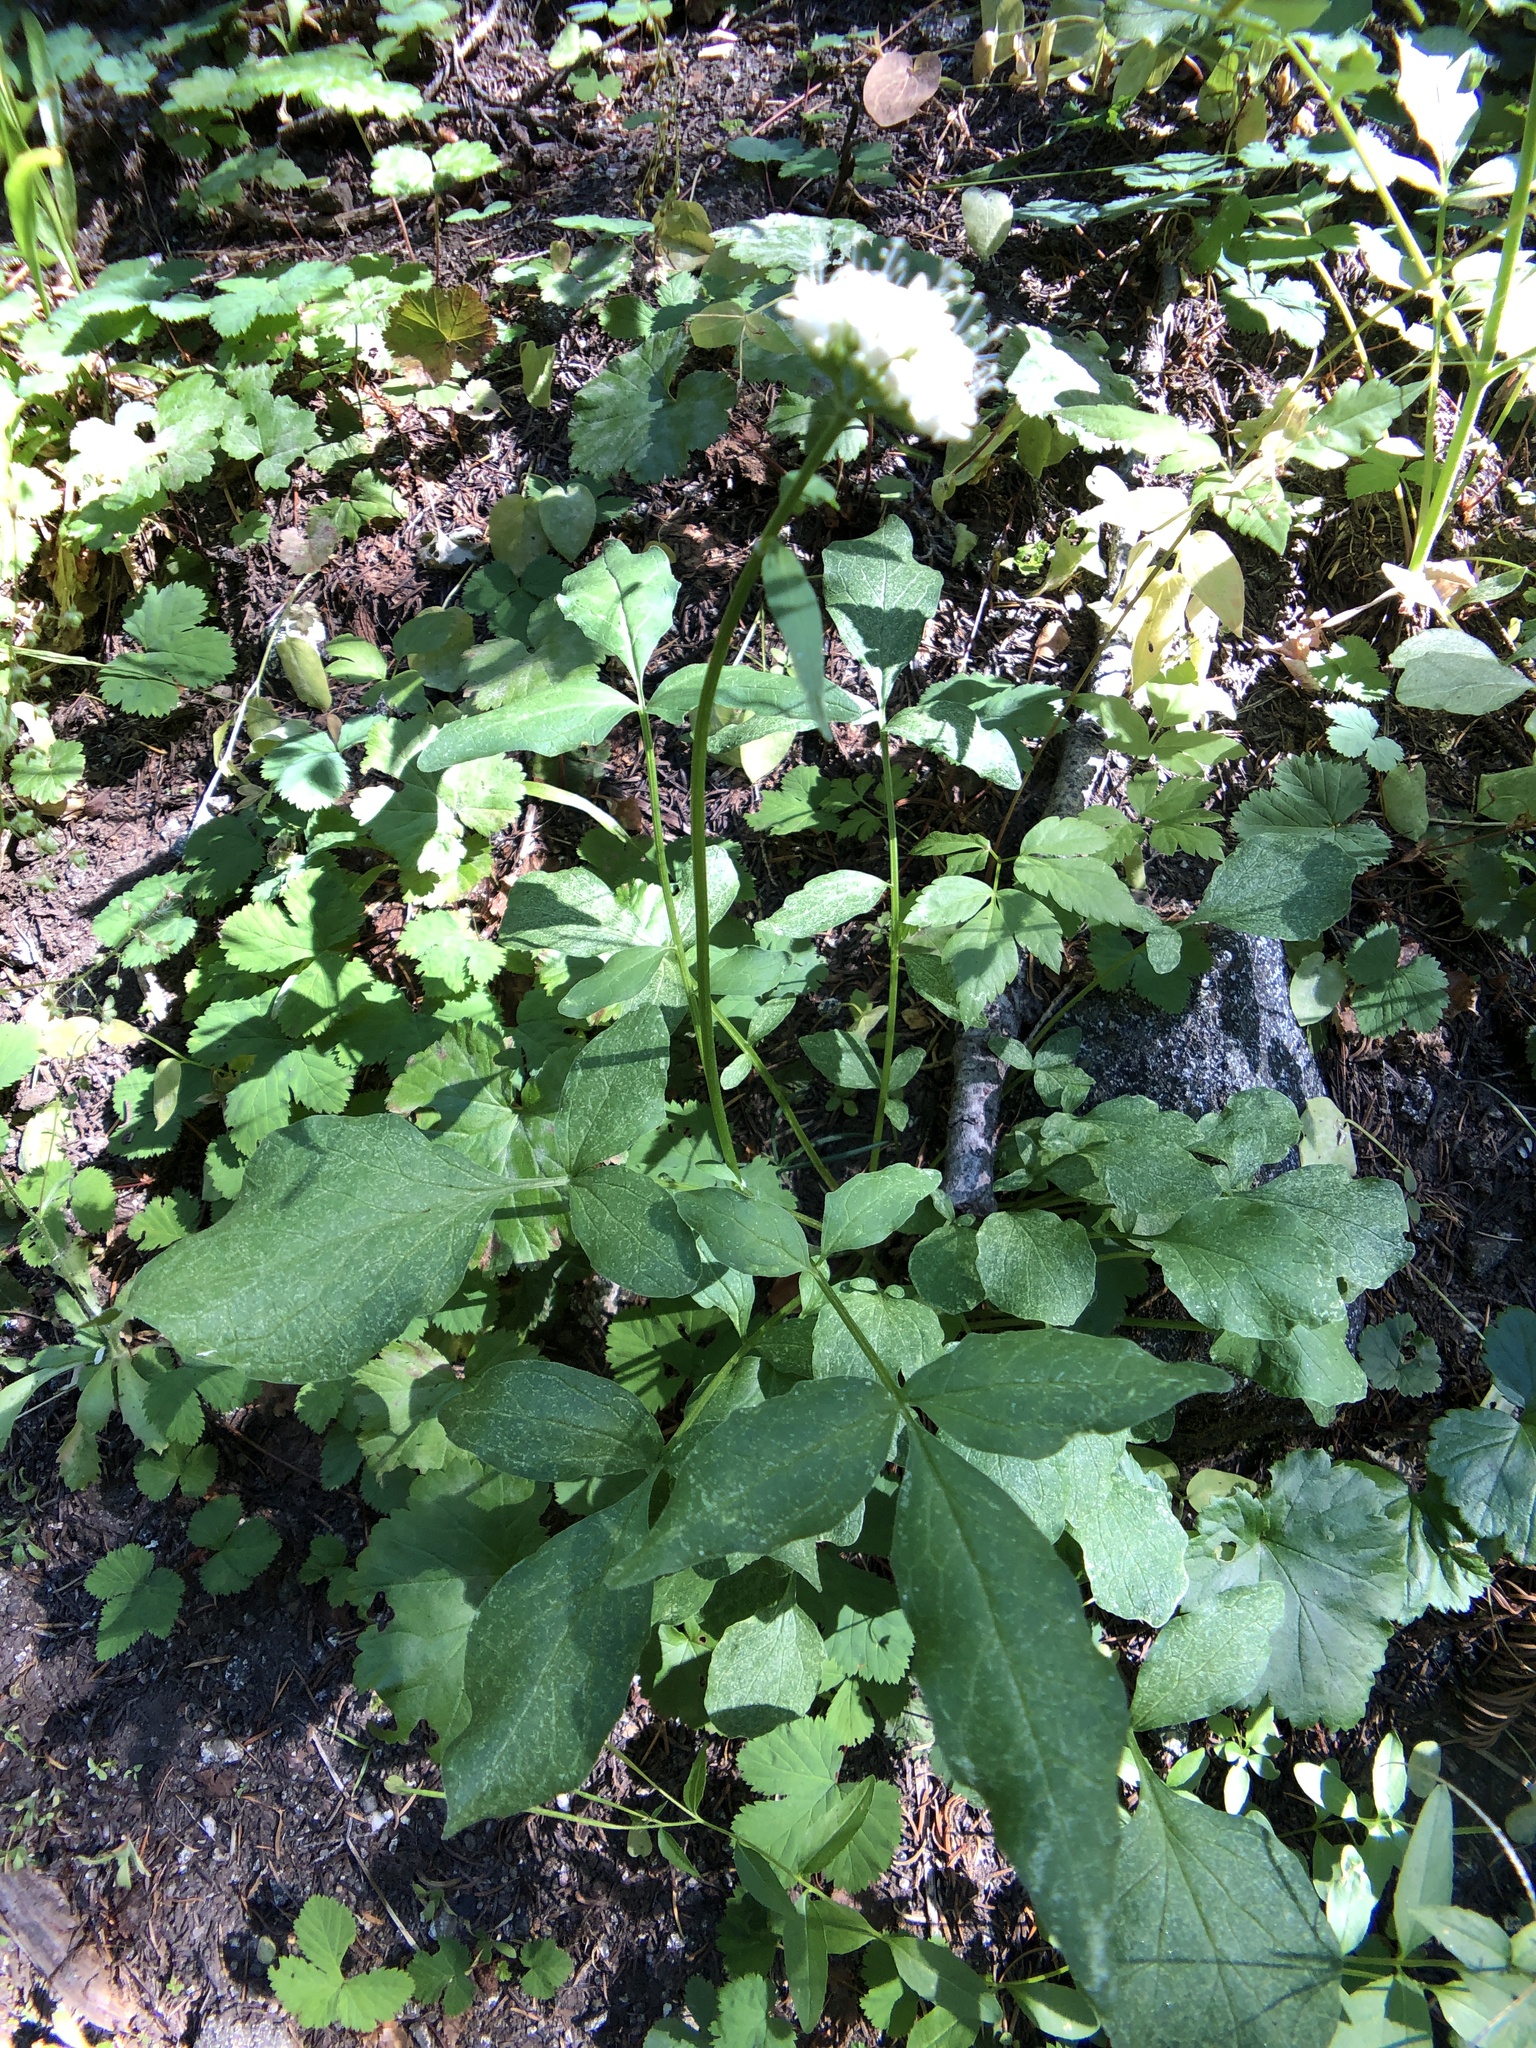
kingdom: Plantae
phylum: Tracheophyta
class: Magnoliopsida
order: Dipsacales
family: Caprifoliaceae
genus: Valeriana
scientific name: Valeriana sitchensis
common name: Pacific valerian
